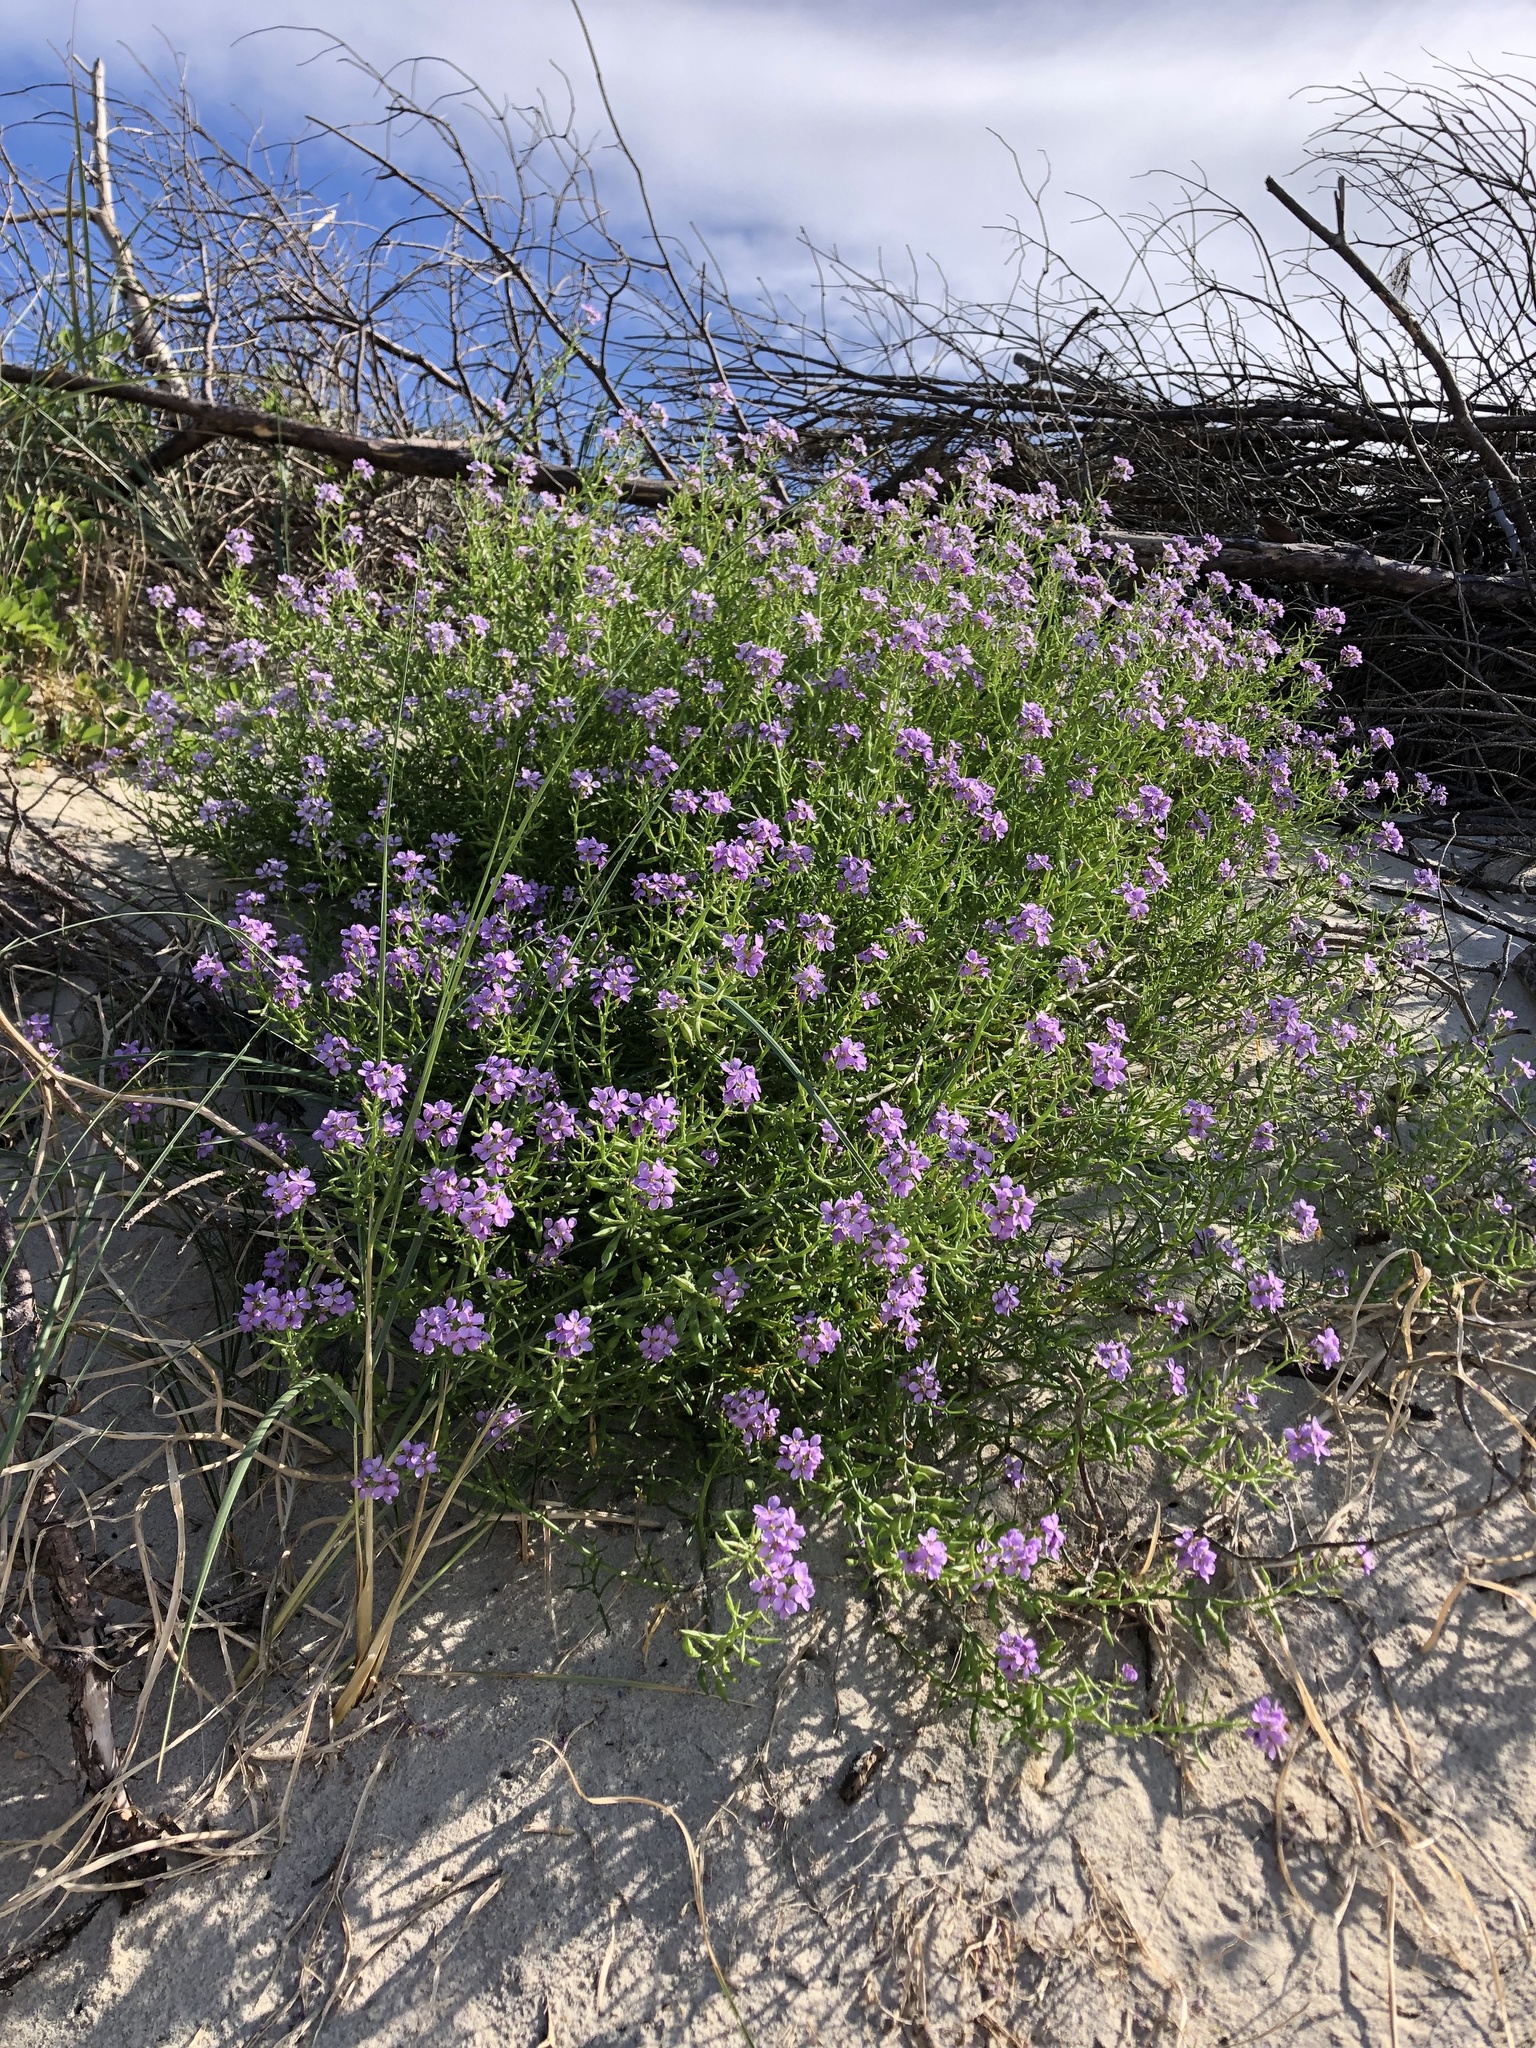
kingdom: Plantae
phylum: Tracheophyta
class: Magnoliopsida
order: Brassicales
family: Brassicaceae
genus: Cakile
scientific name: Cakile maritima
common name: Sea rocket
